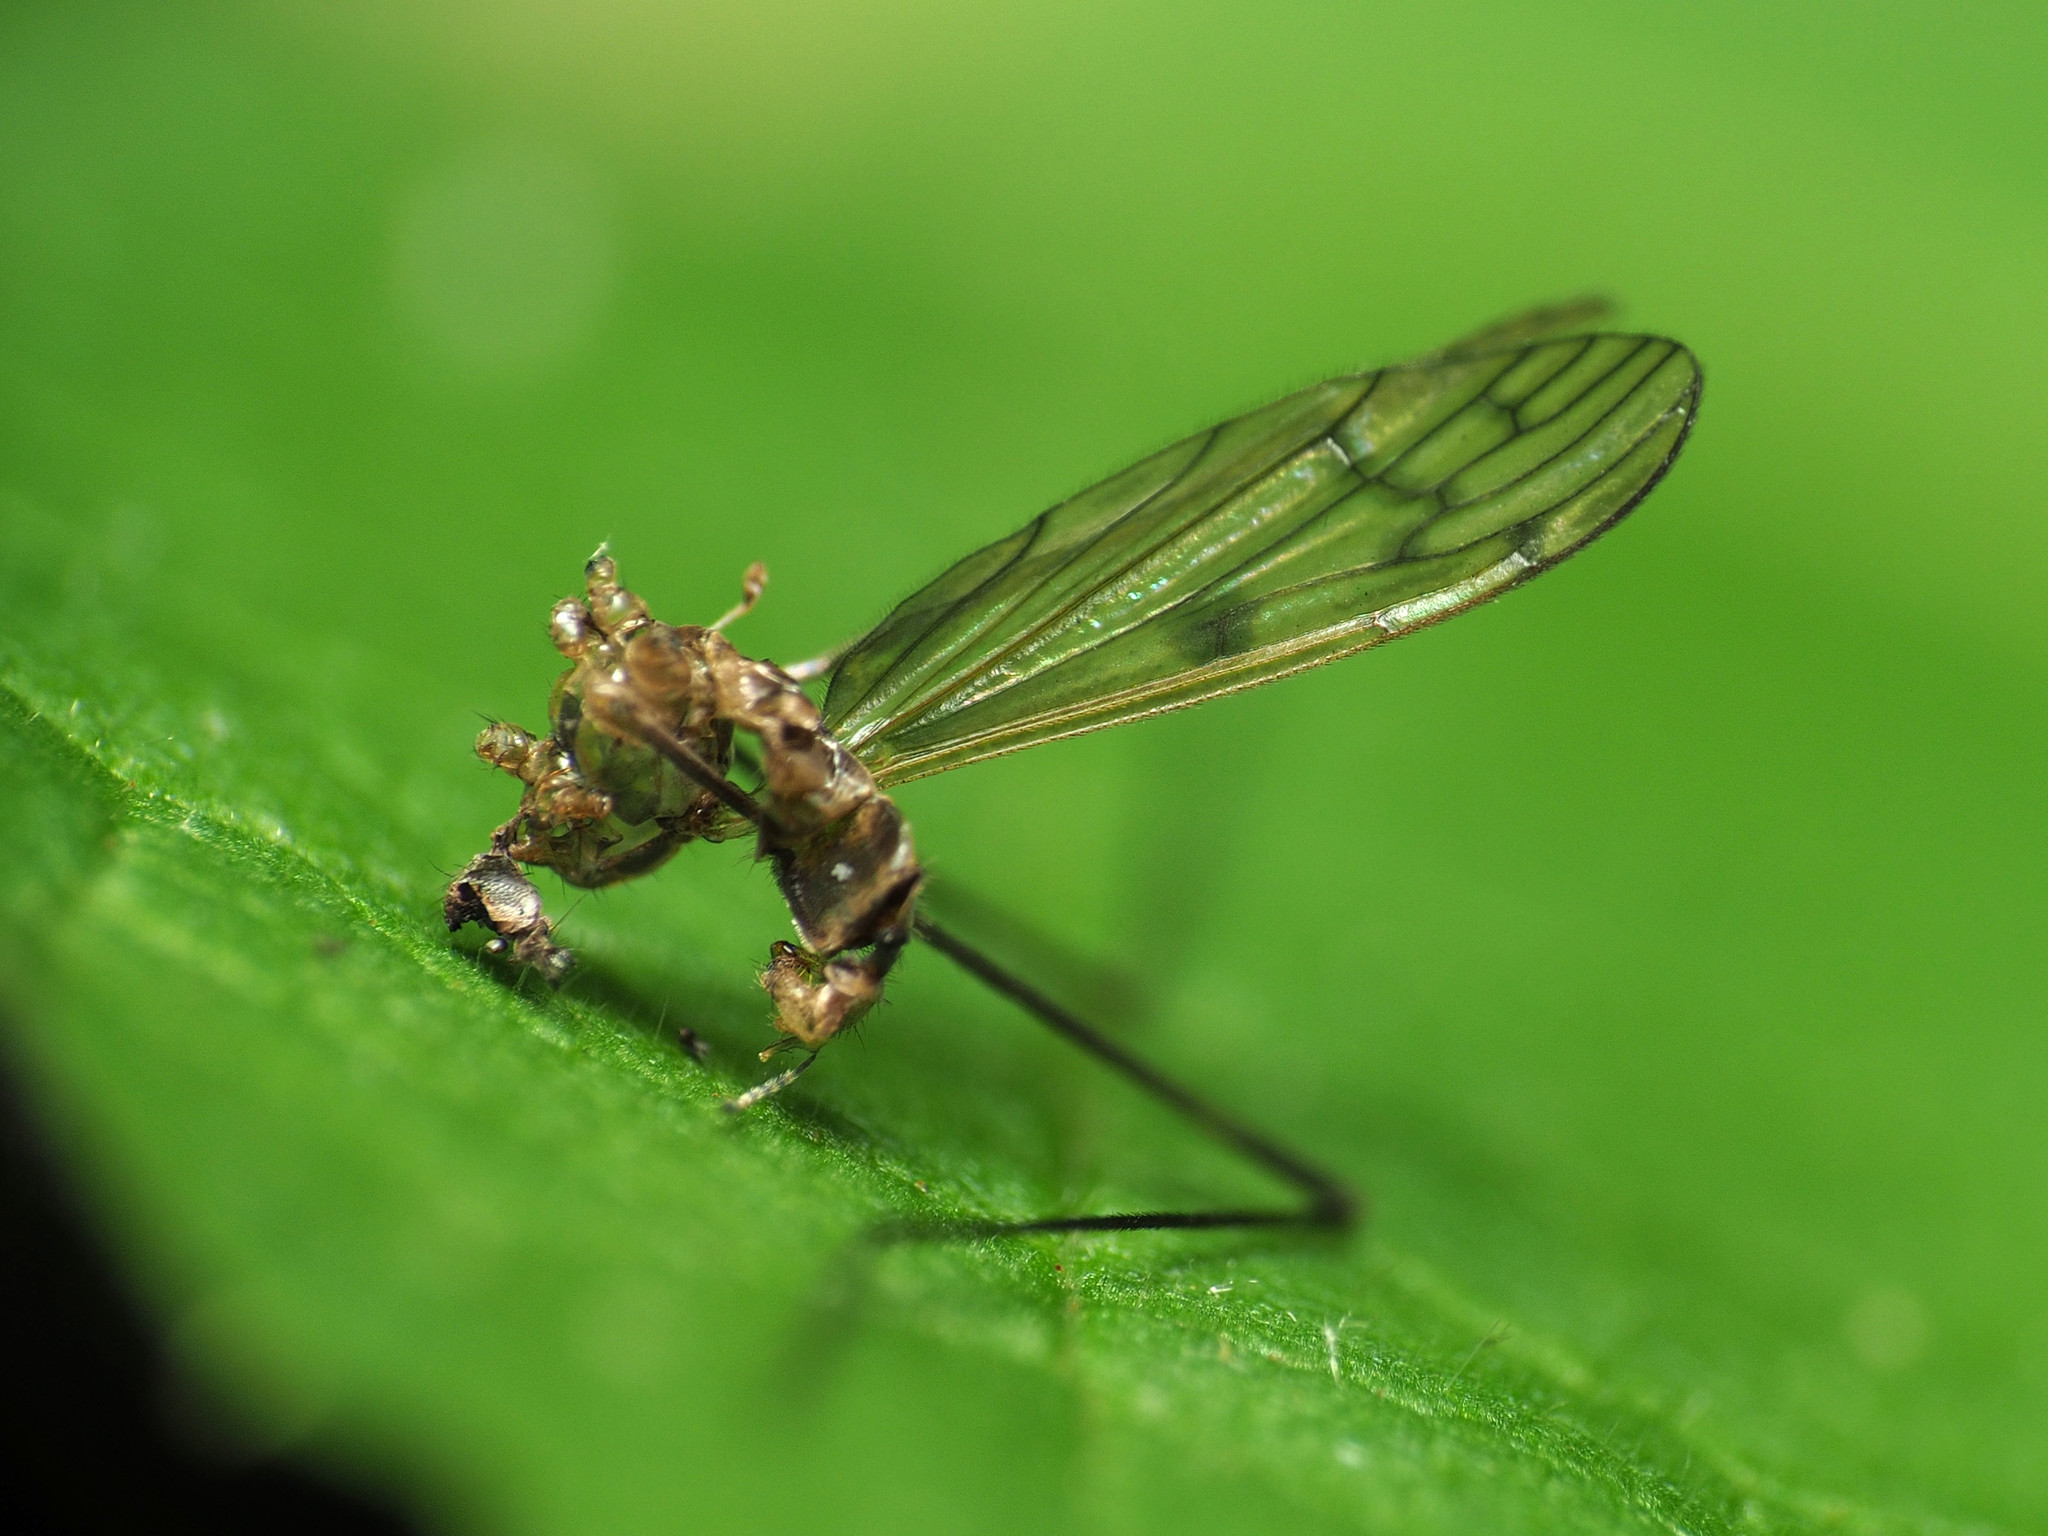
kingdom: Animalia
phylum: Arthropoda
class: Insecta
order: Diptera
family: Limoniidae
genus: Metalimnobia
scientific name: Metalimnobia novaeangliae
